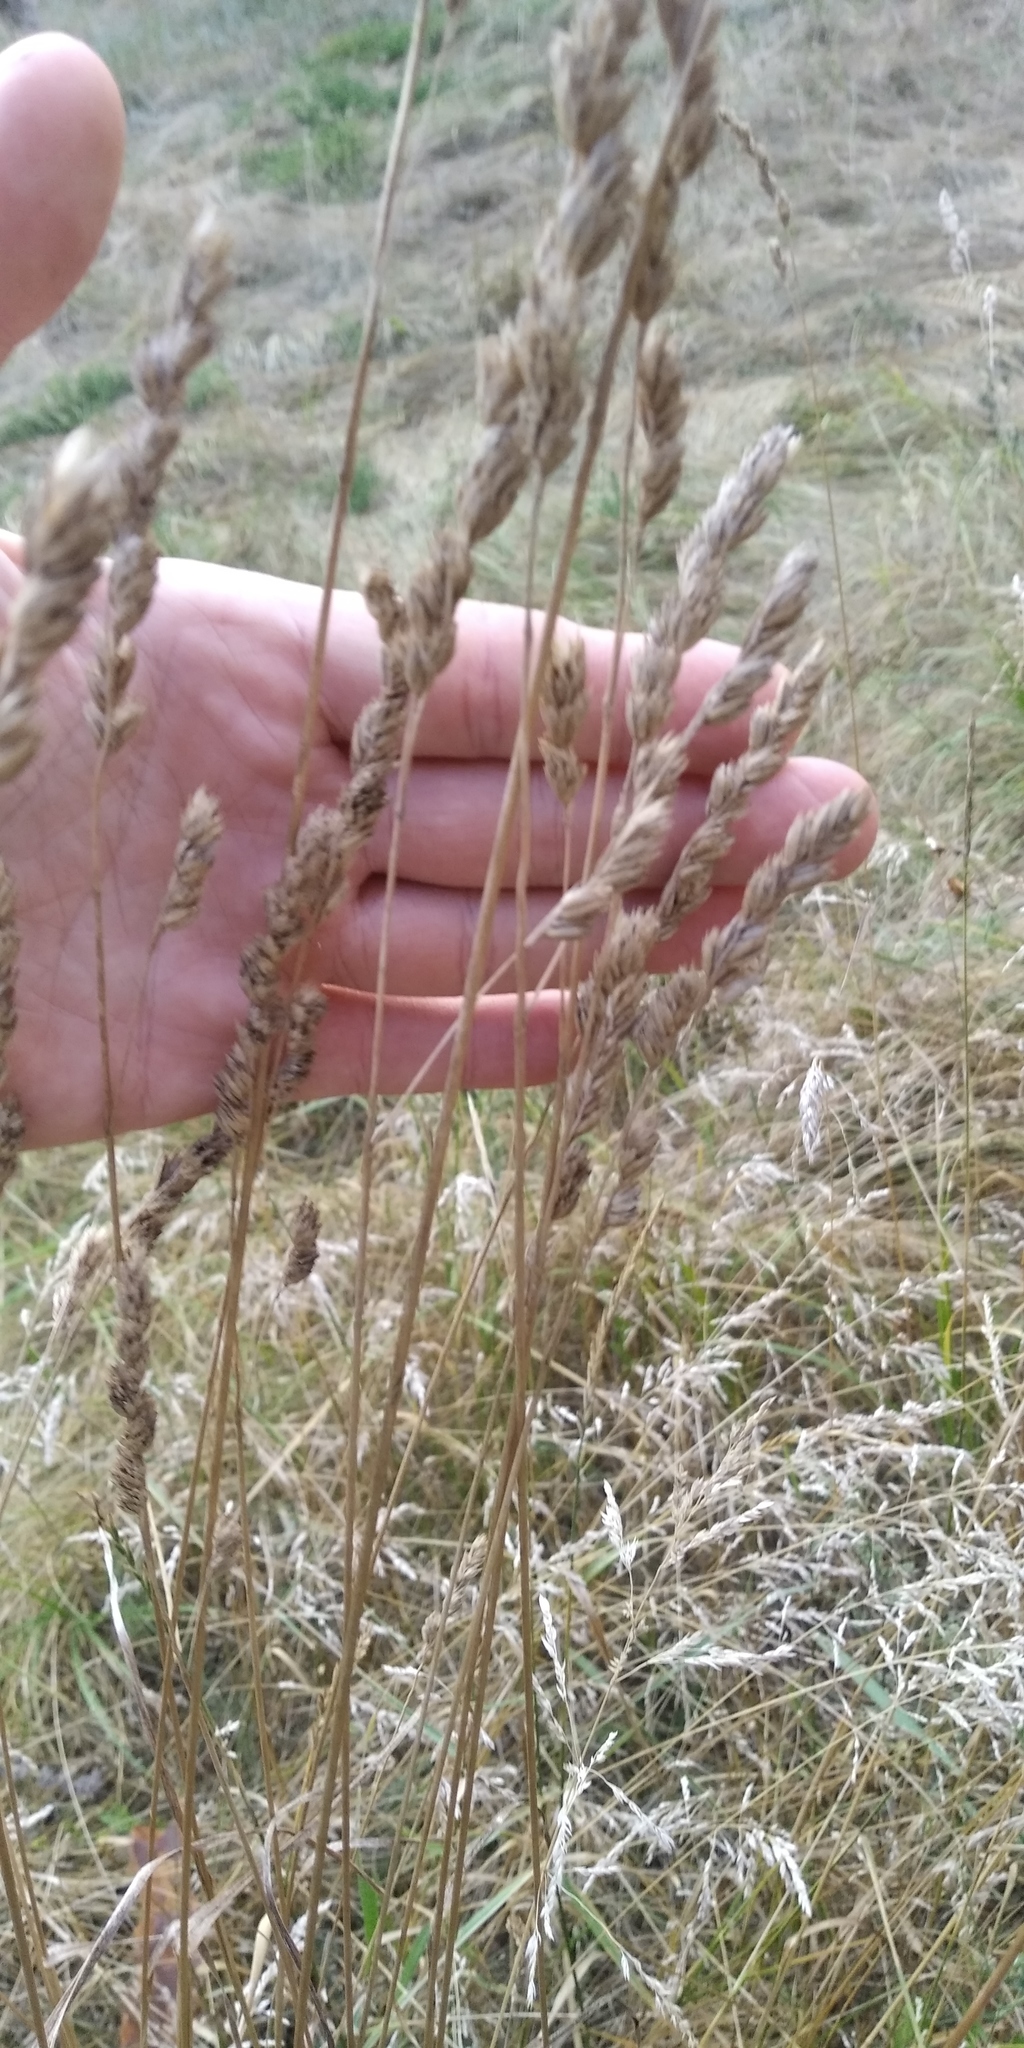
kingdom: Plantae
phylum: Tracheophyta
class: Liliopsida
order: Poales
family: Poaceae
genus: Dactylis
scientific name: Dactylis glomerata
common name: Orchardgrass
